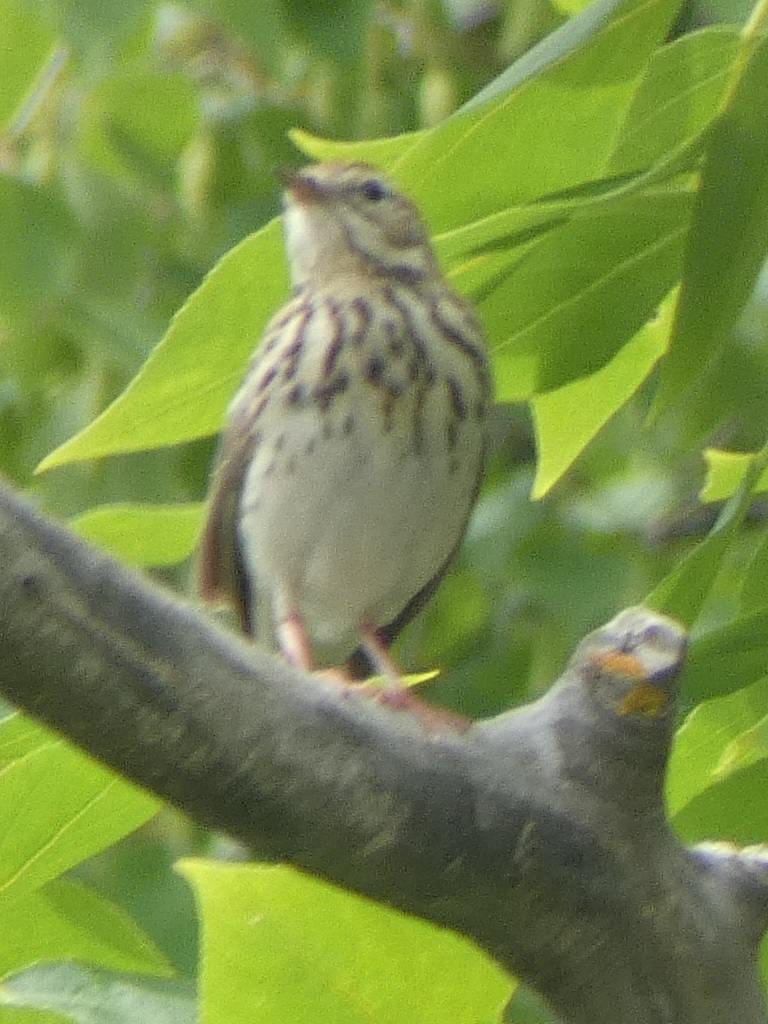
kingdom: Animalia
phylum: Chordata
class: Aves
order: Passeriformes
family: Motacillidae
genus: Anthus
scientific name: Anthus trivialis
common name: Tree pipit
